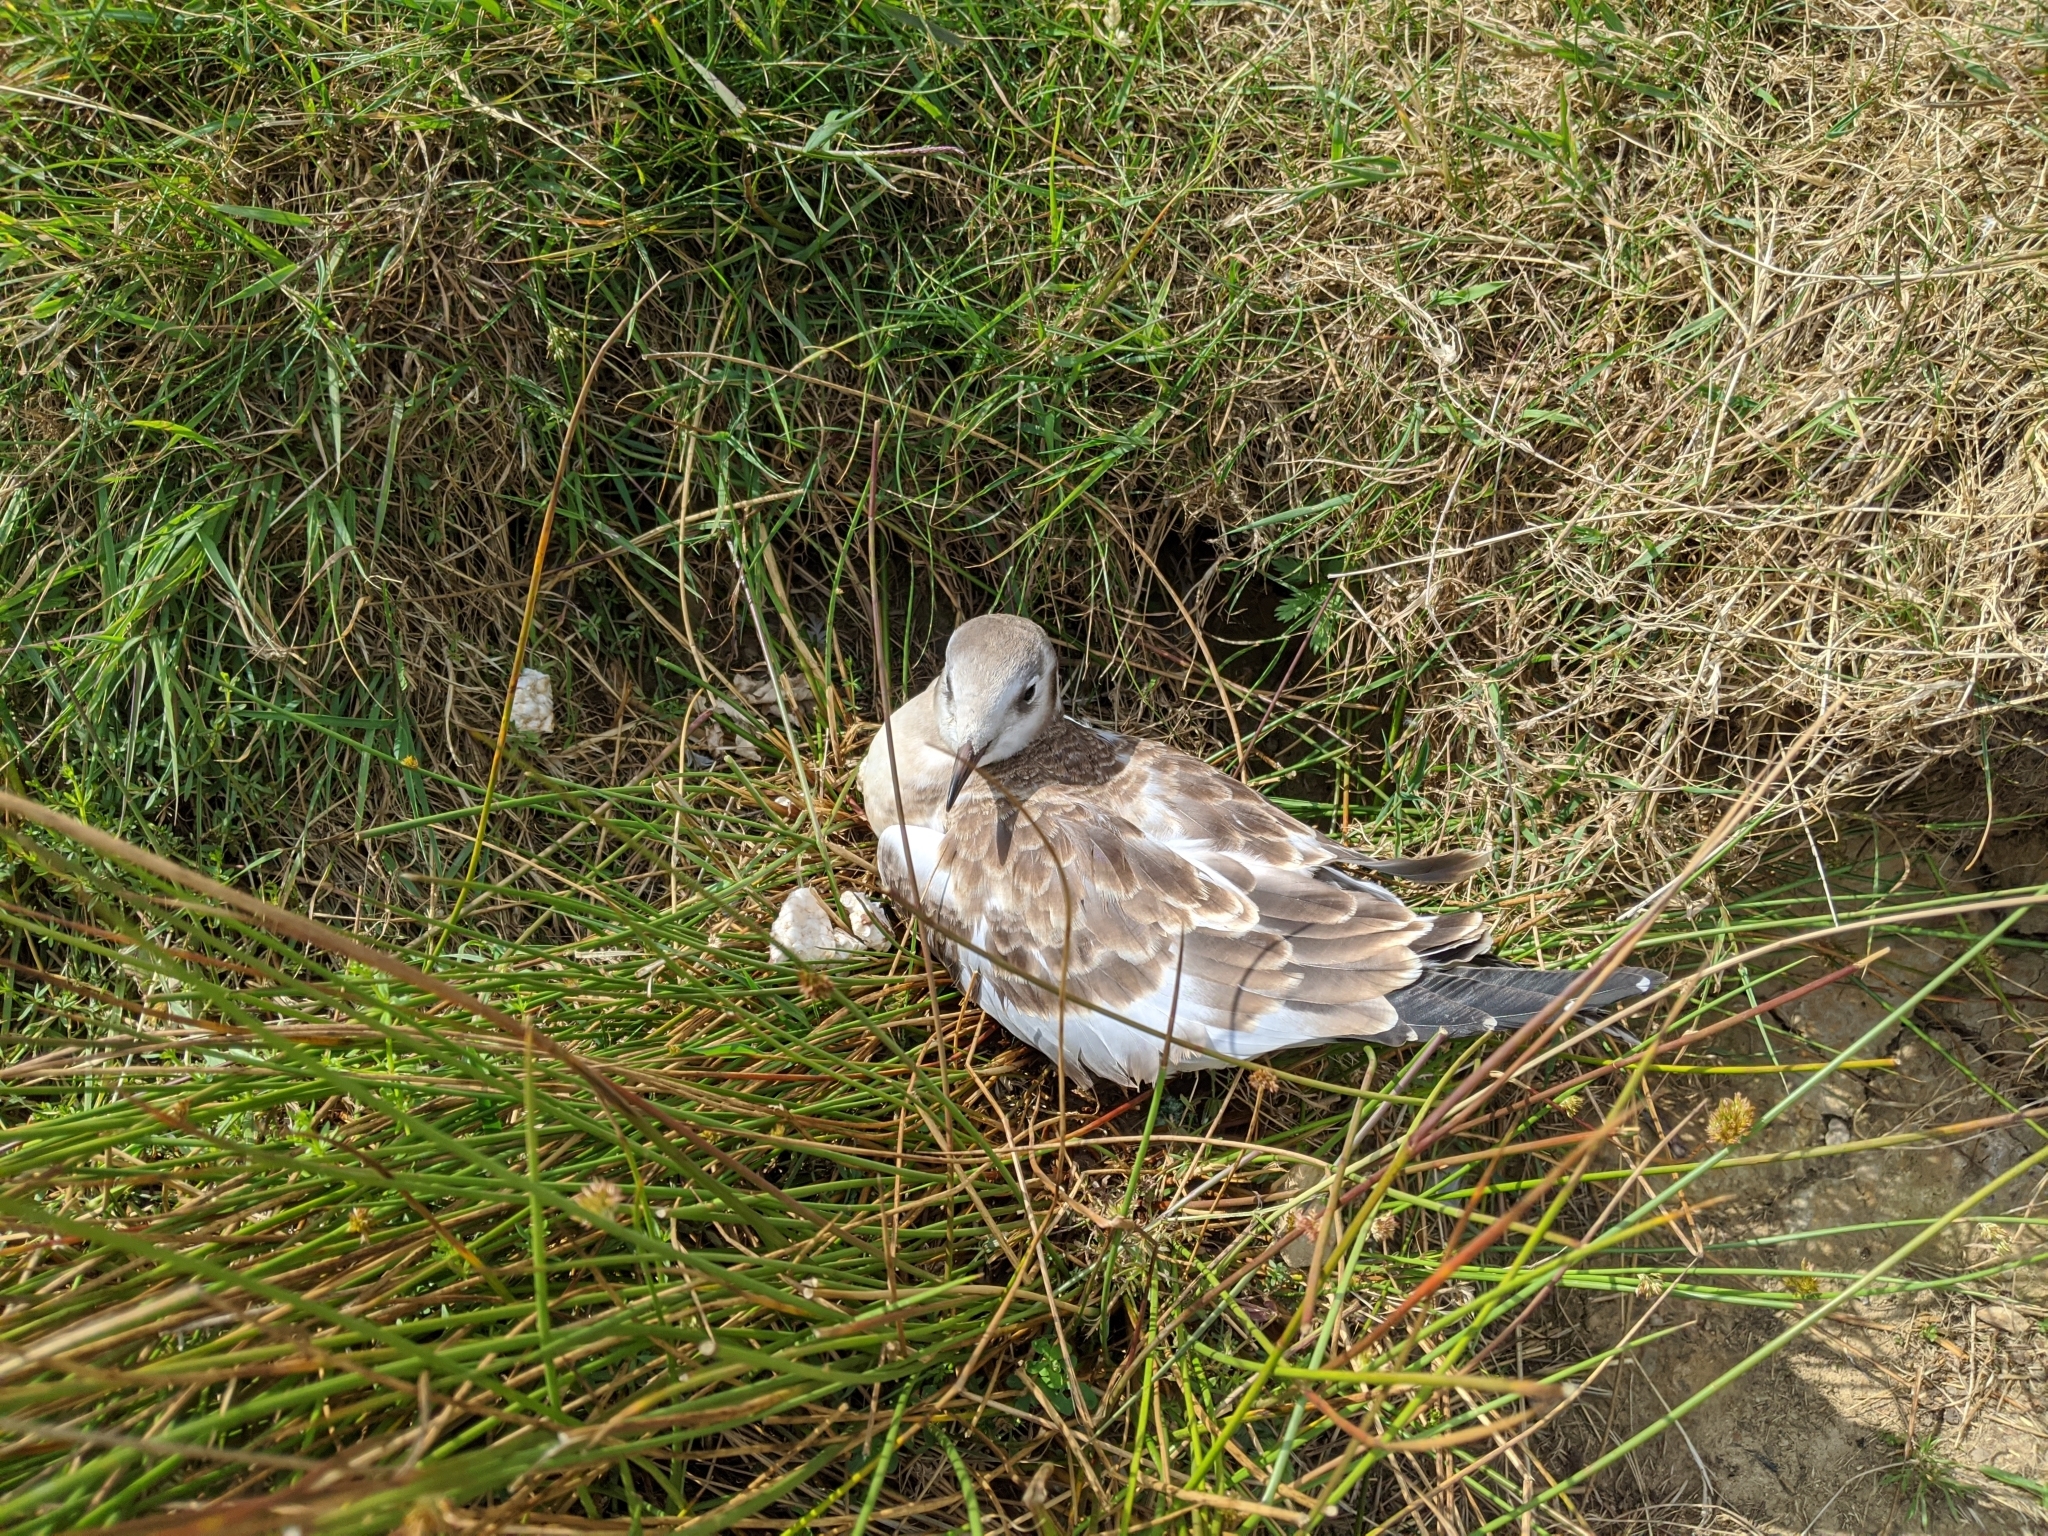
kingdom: Animalia
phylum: Chordata
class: Aves
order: Charadriiformes
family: Laridae
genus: Chroicocephalus
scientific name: Chroicocephalus ridibundus
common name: Black-headed gull
